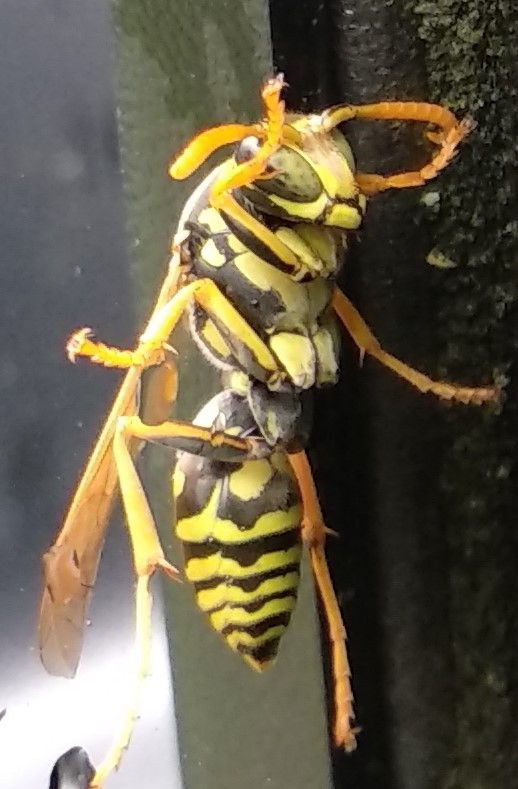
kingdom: Animalia
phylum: Arthropoda
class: Insecta
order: Hymenoptera
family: Eumenidae
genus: Polistes
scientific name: Polistes dominula
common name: Paper wasp
